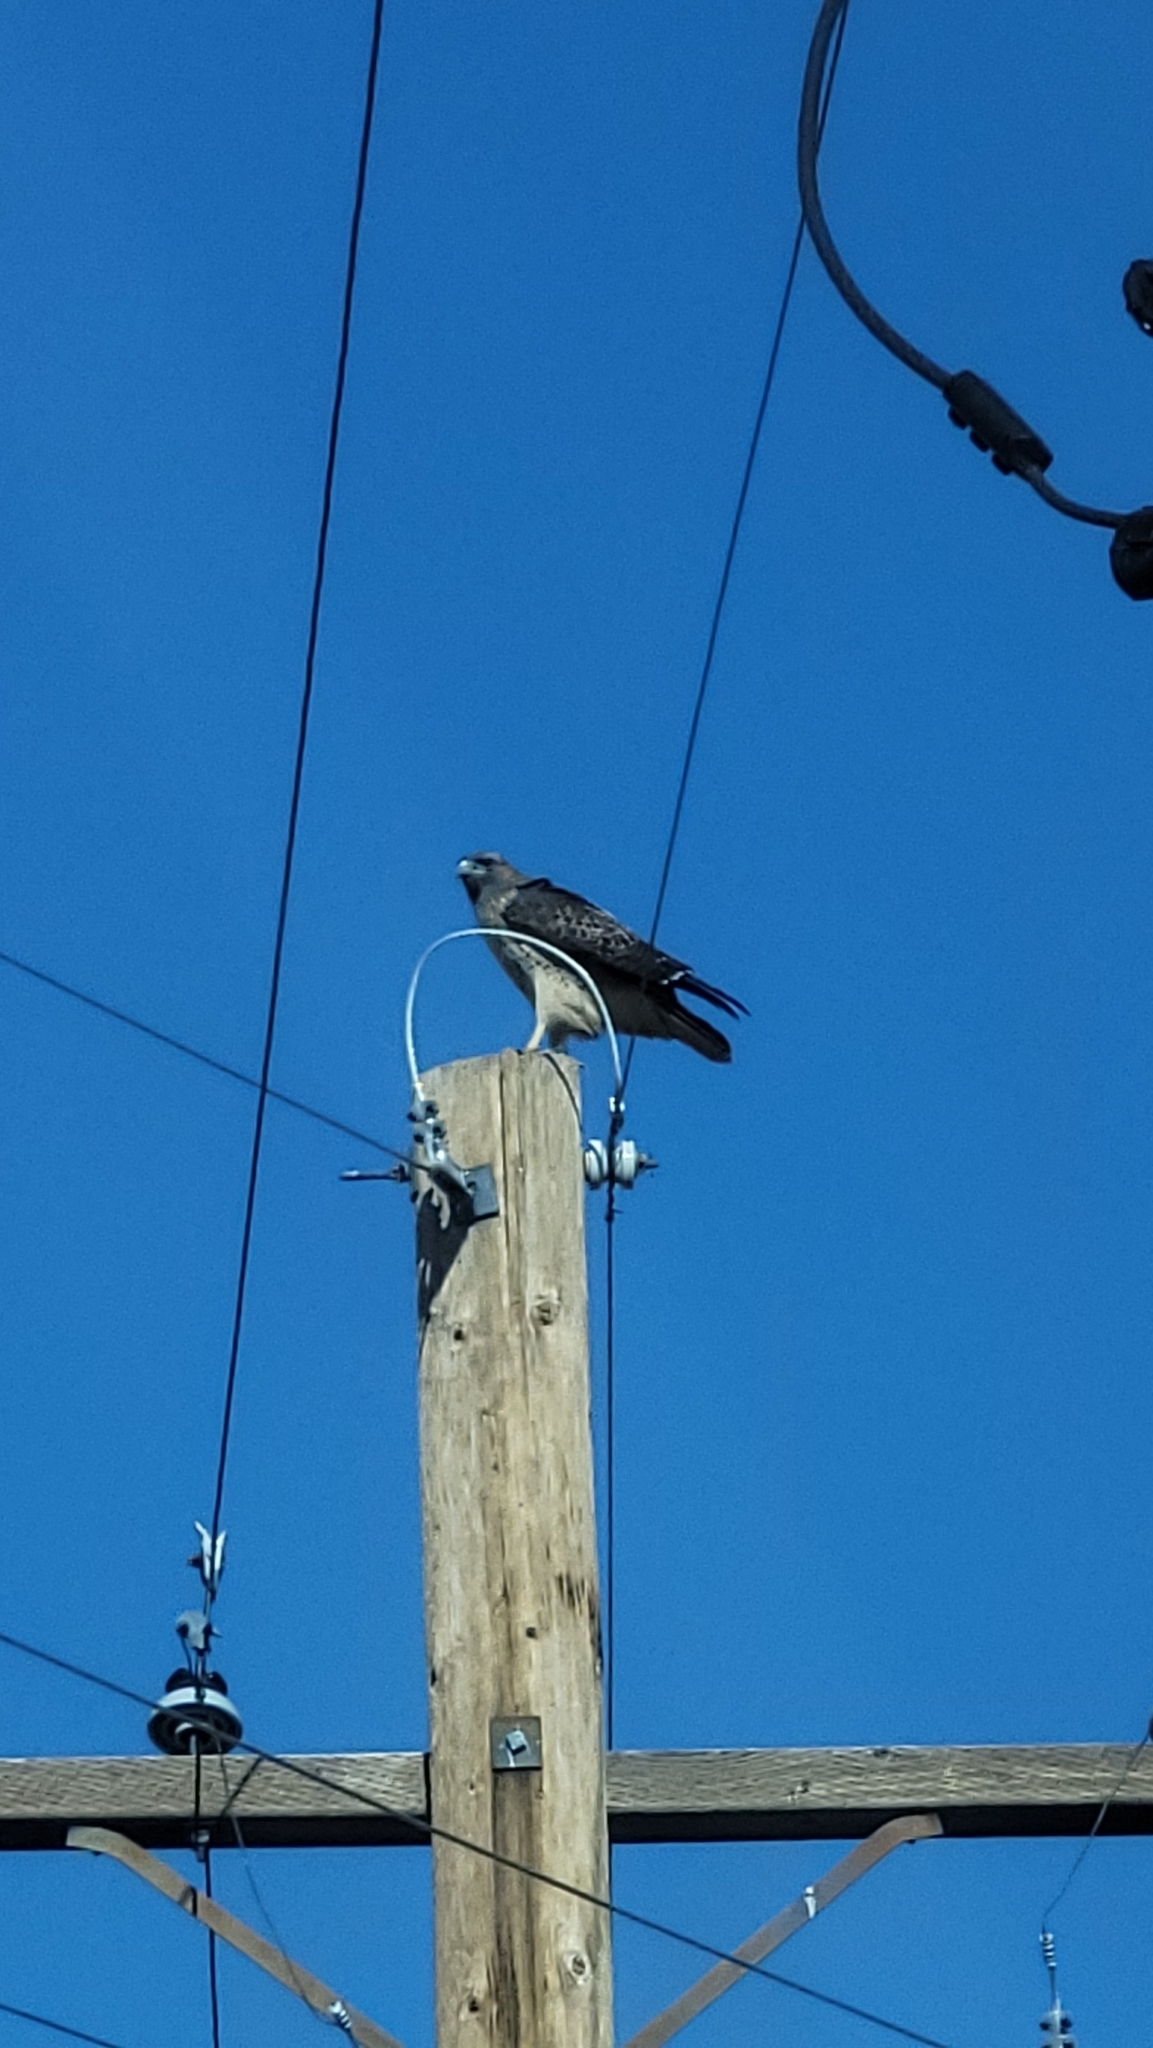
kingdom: Animalia
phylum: Chordata
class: Aves
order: Accipitriformes
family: Accipitridae
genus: Buteo
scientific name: Buteo jamaicensis
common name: Red-tailed hawk
